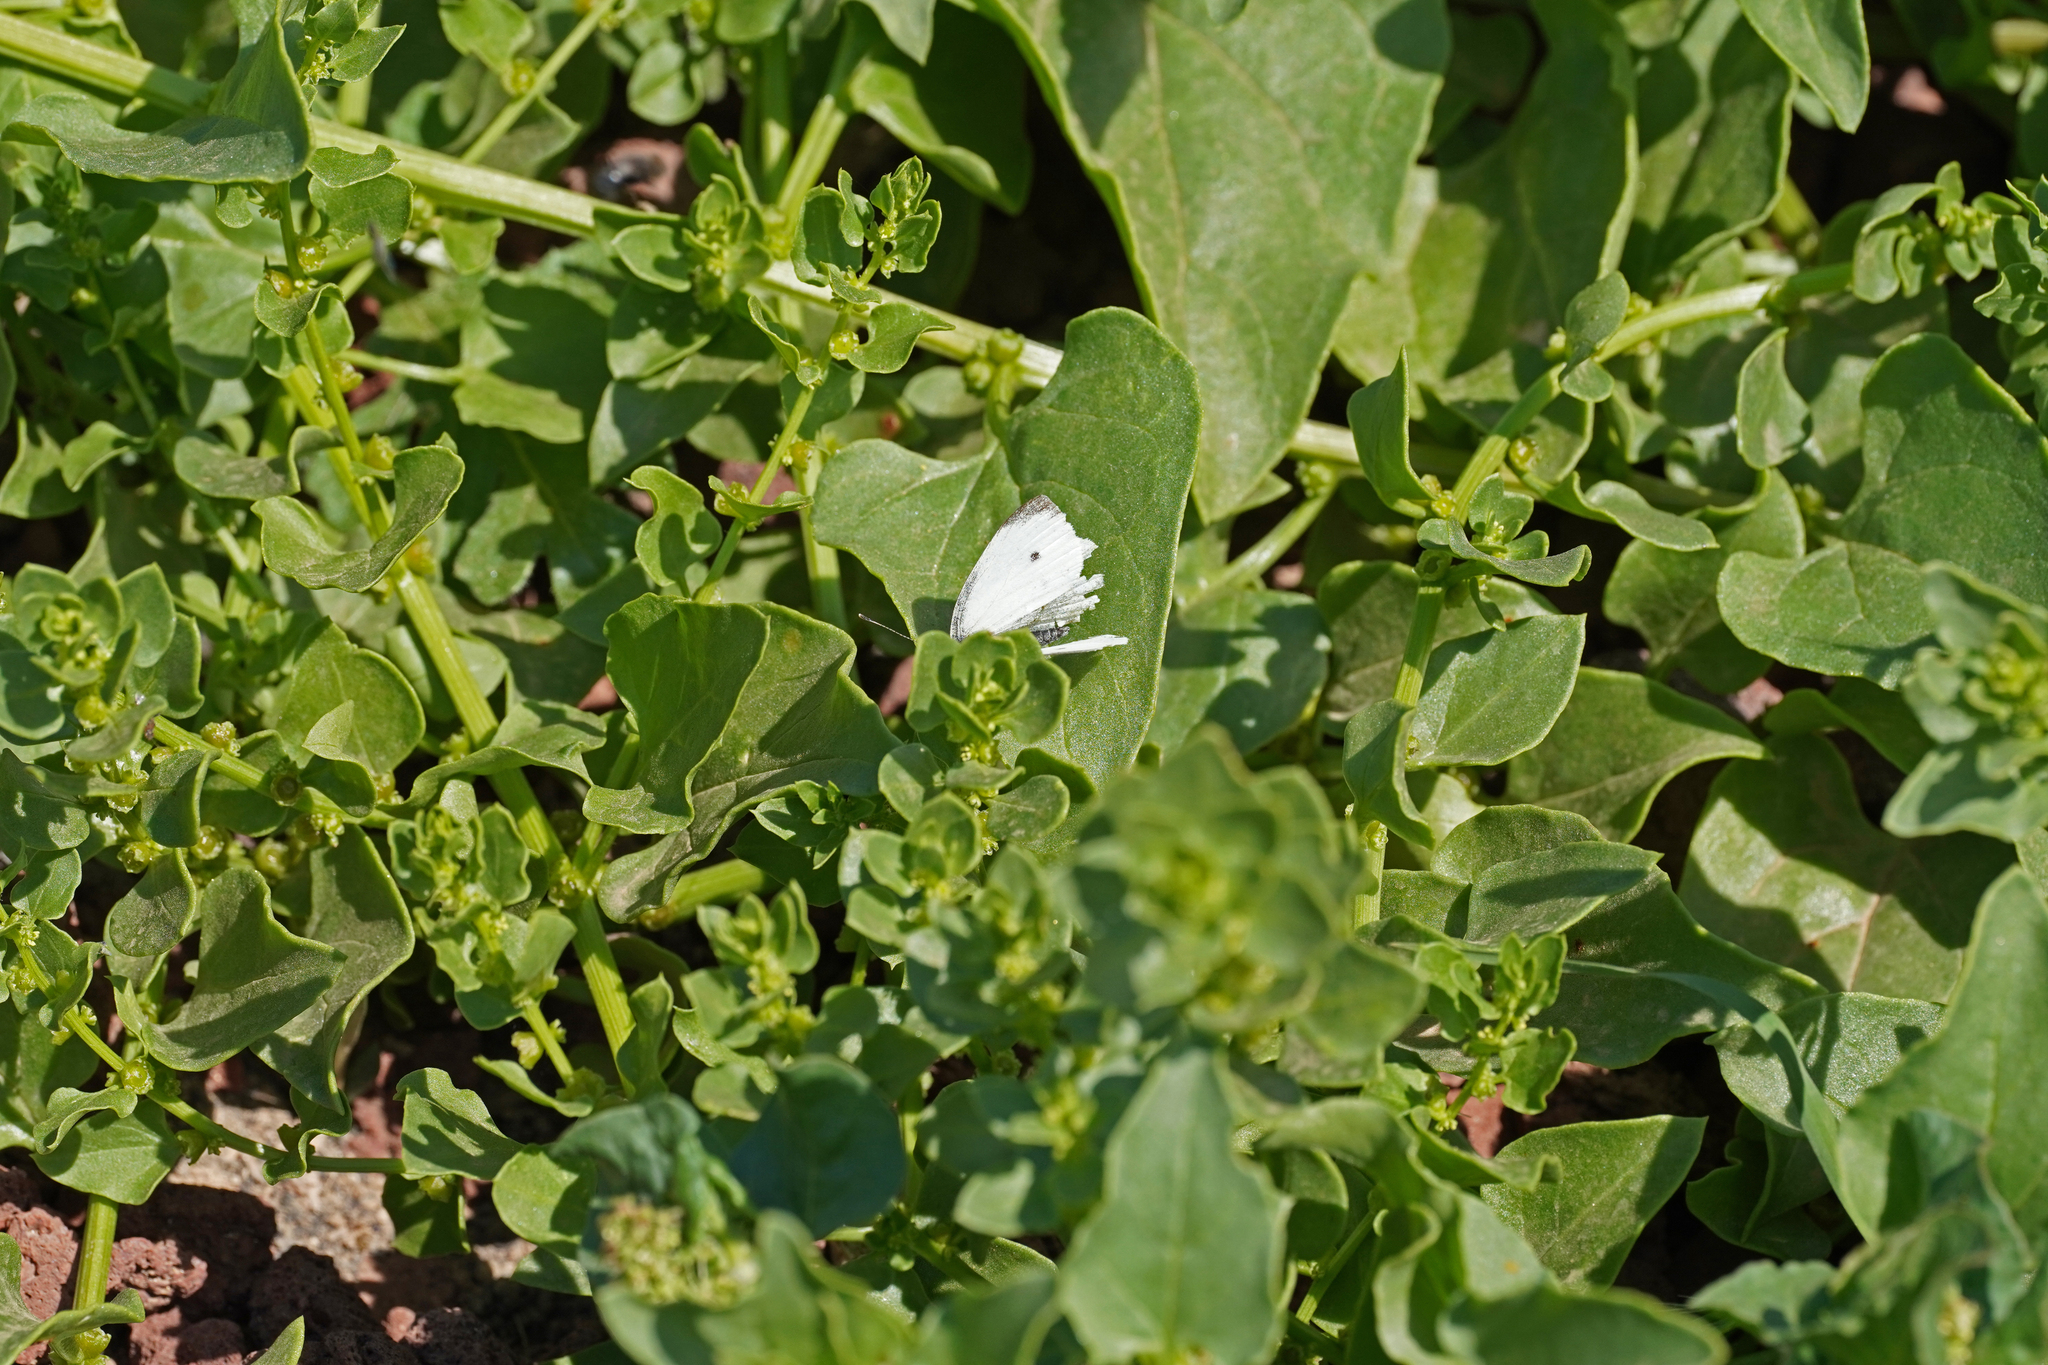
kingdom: Animalia
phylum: Arthropoda
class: Insecta
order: Lepidoptera
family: Pieridae
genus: Pieris
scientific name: Pieris rapae
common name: Small white
